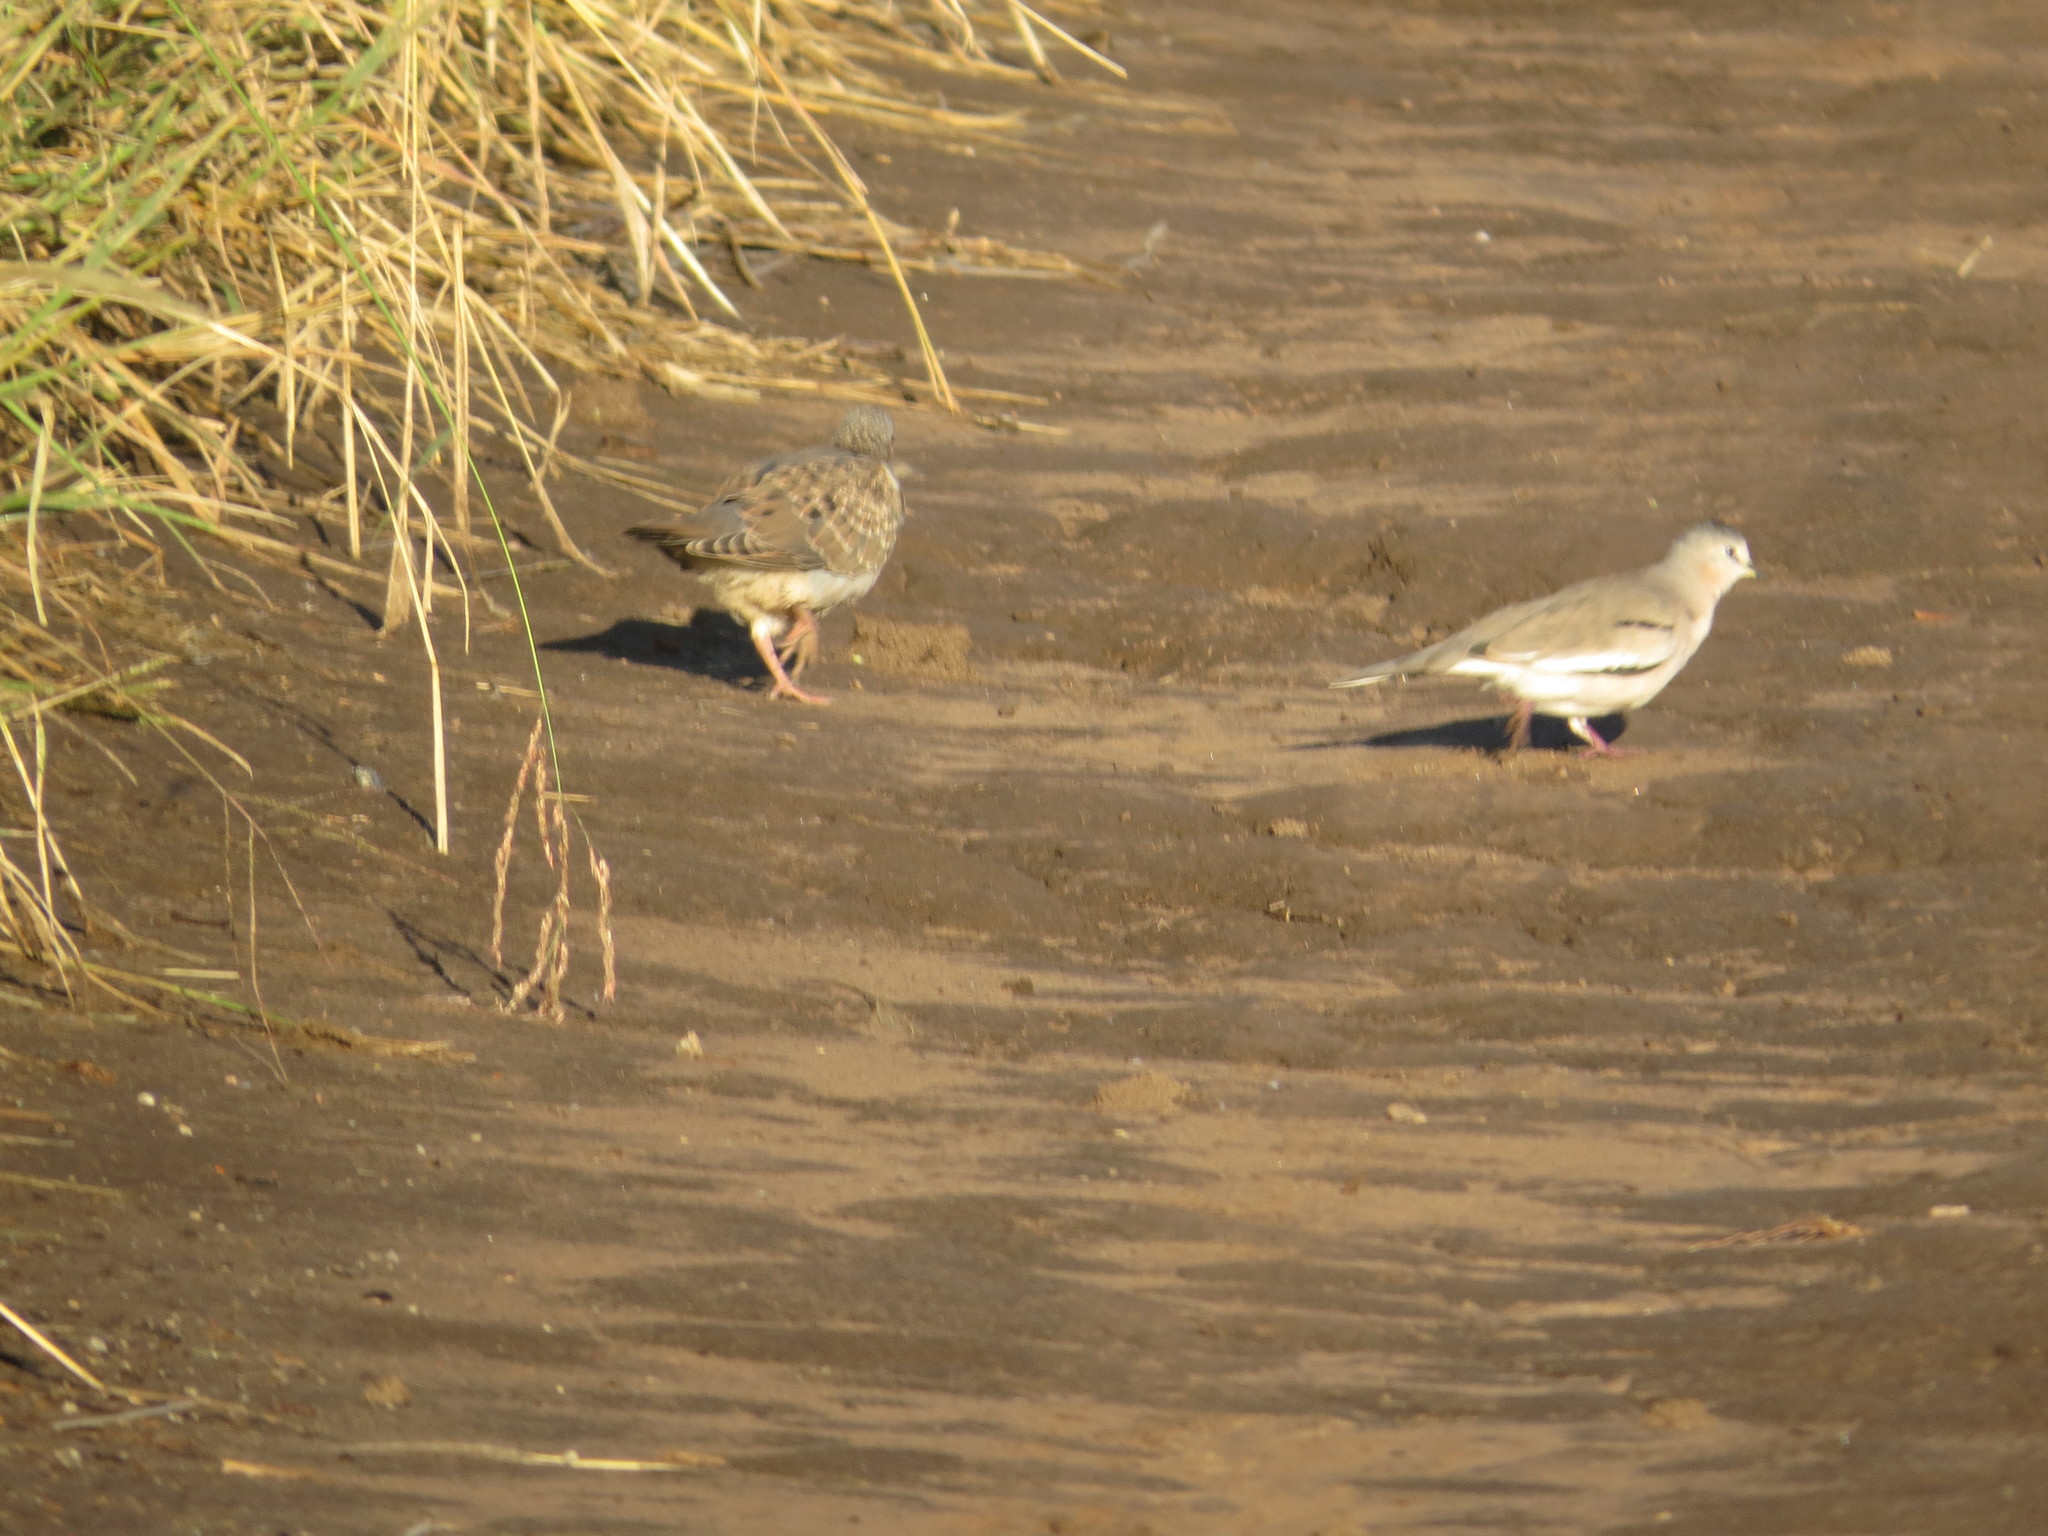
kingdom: Animalia
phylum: Chordata
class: Aves
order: Columbiformes
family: Columbidae
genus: Columbina
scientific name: Columbina picui
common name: Picui ground dove
